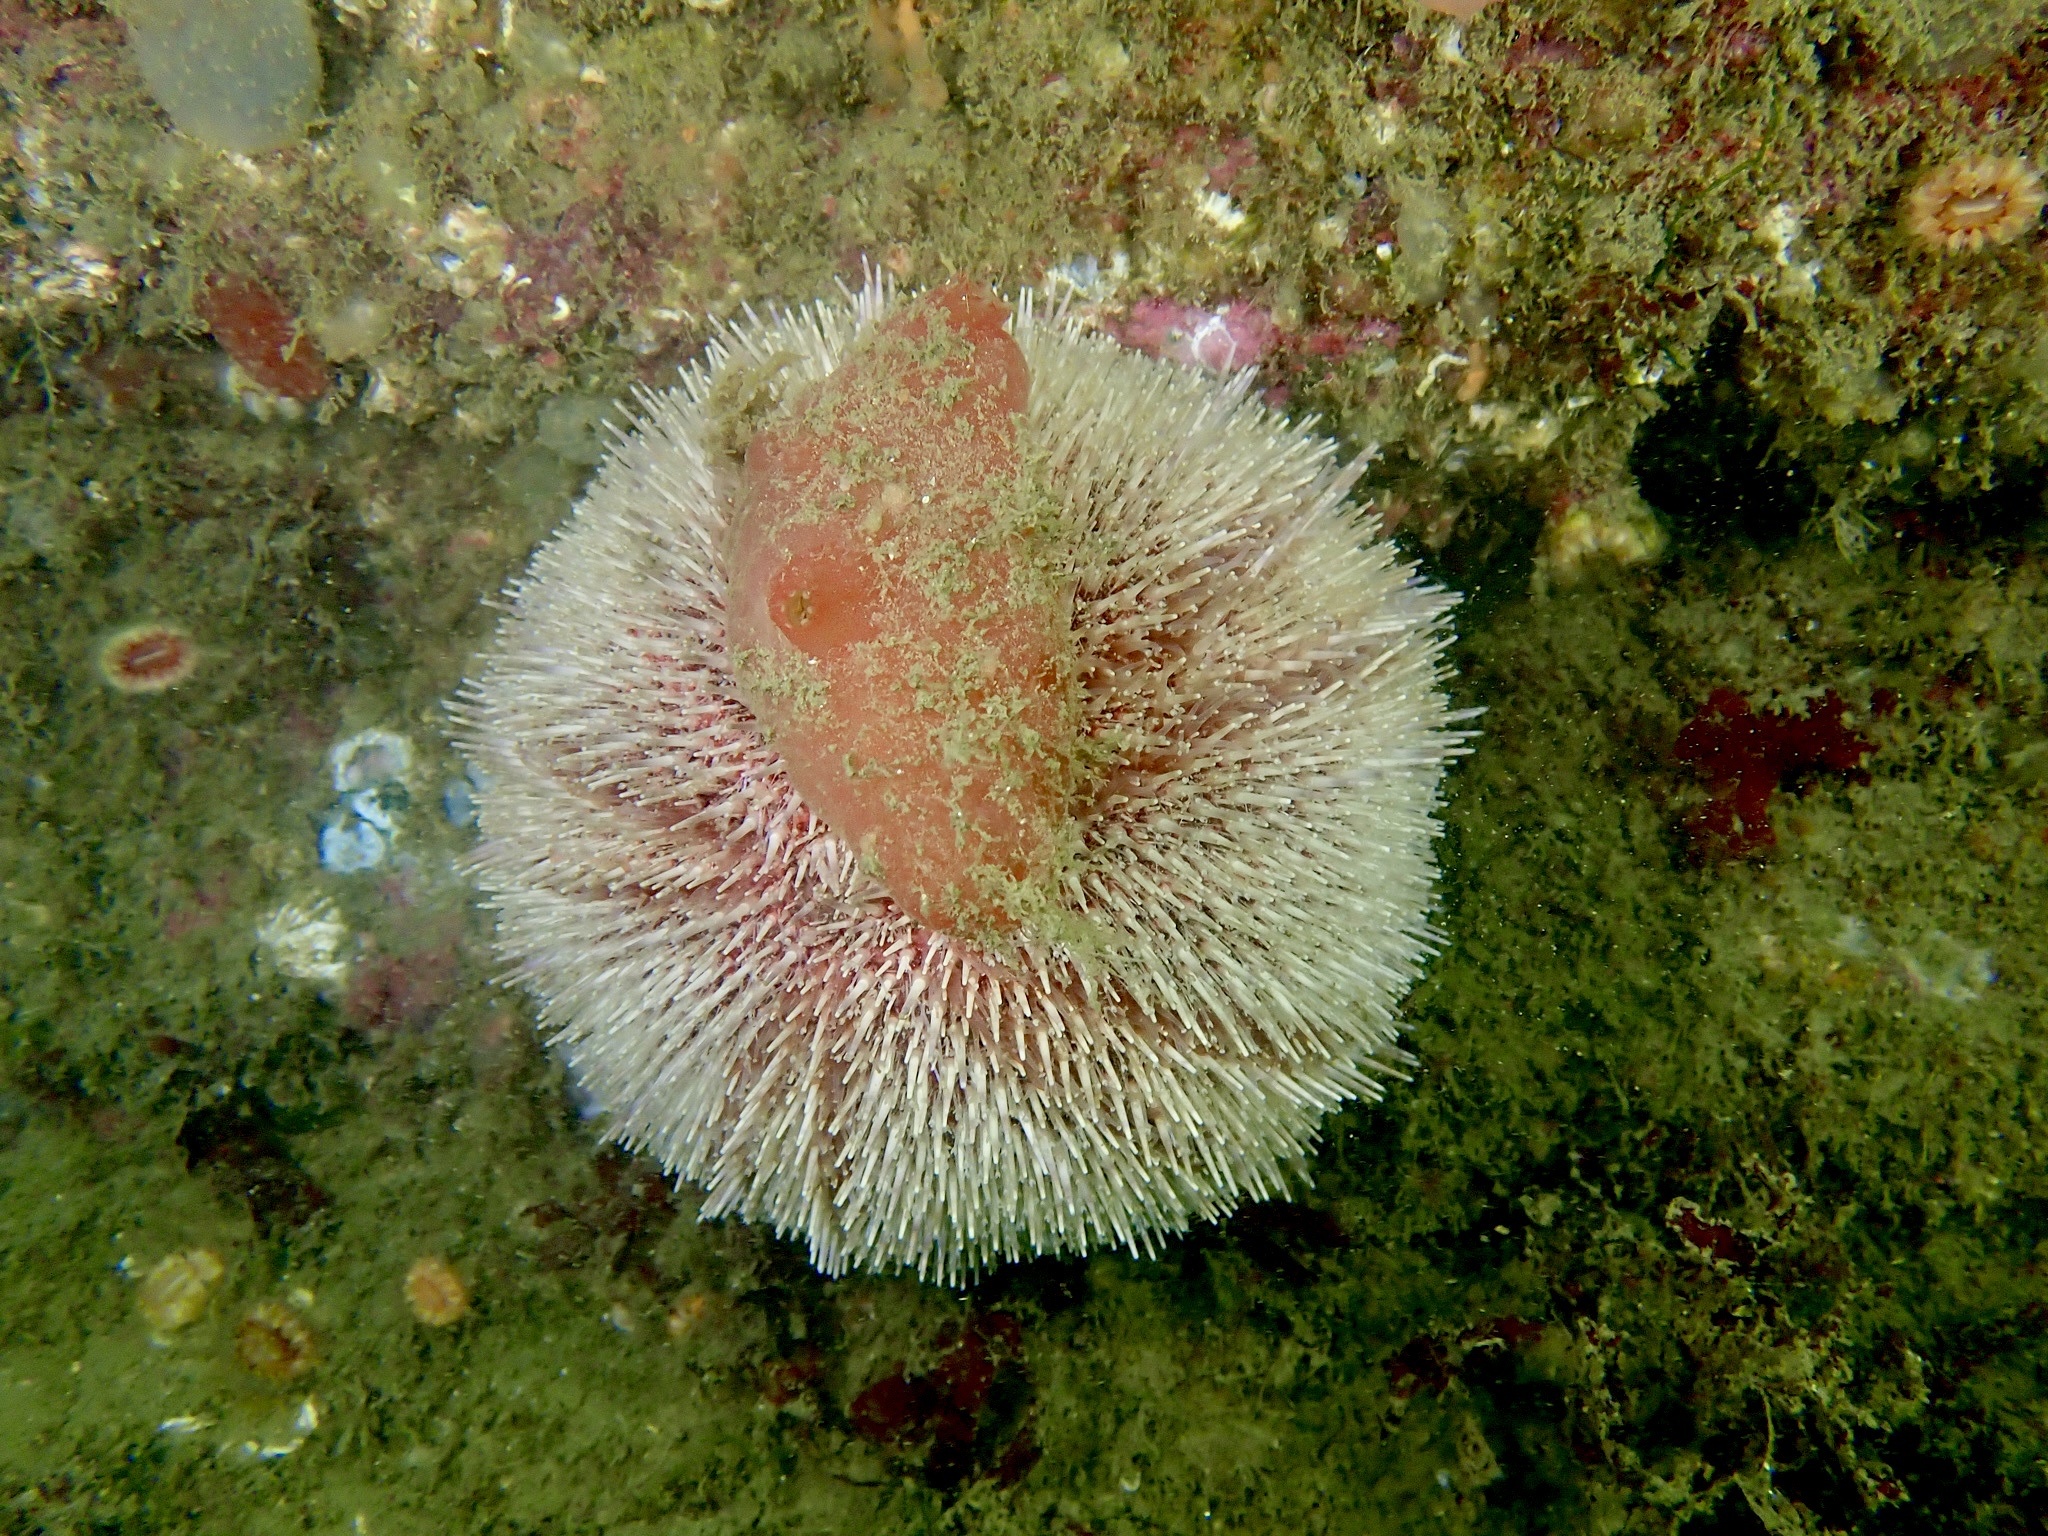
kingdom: Animalia
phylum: Echinodermata
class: Echinoidea
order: Camarodonta
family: Echinidae
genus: Echinus
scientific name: Echinus esculentus
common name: Edible sea urchin
